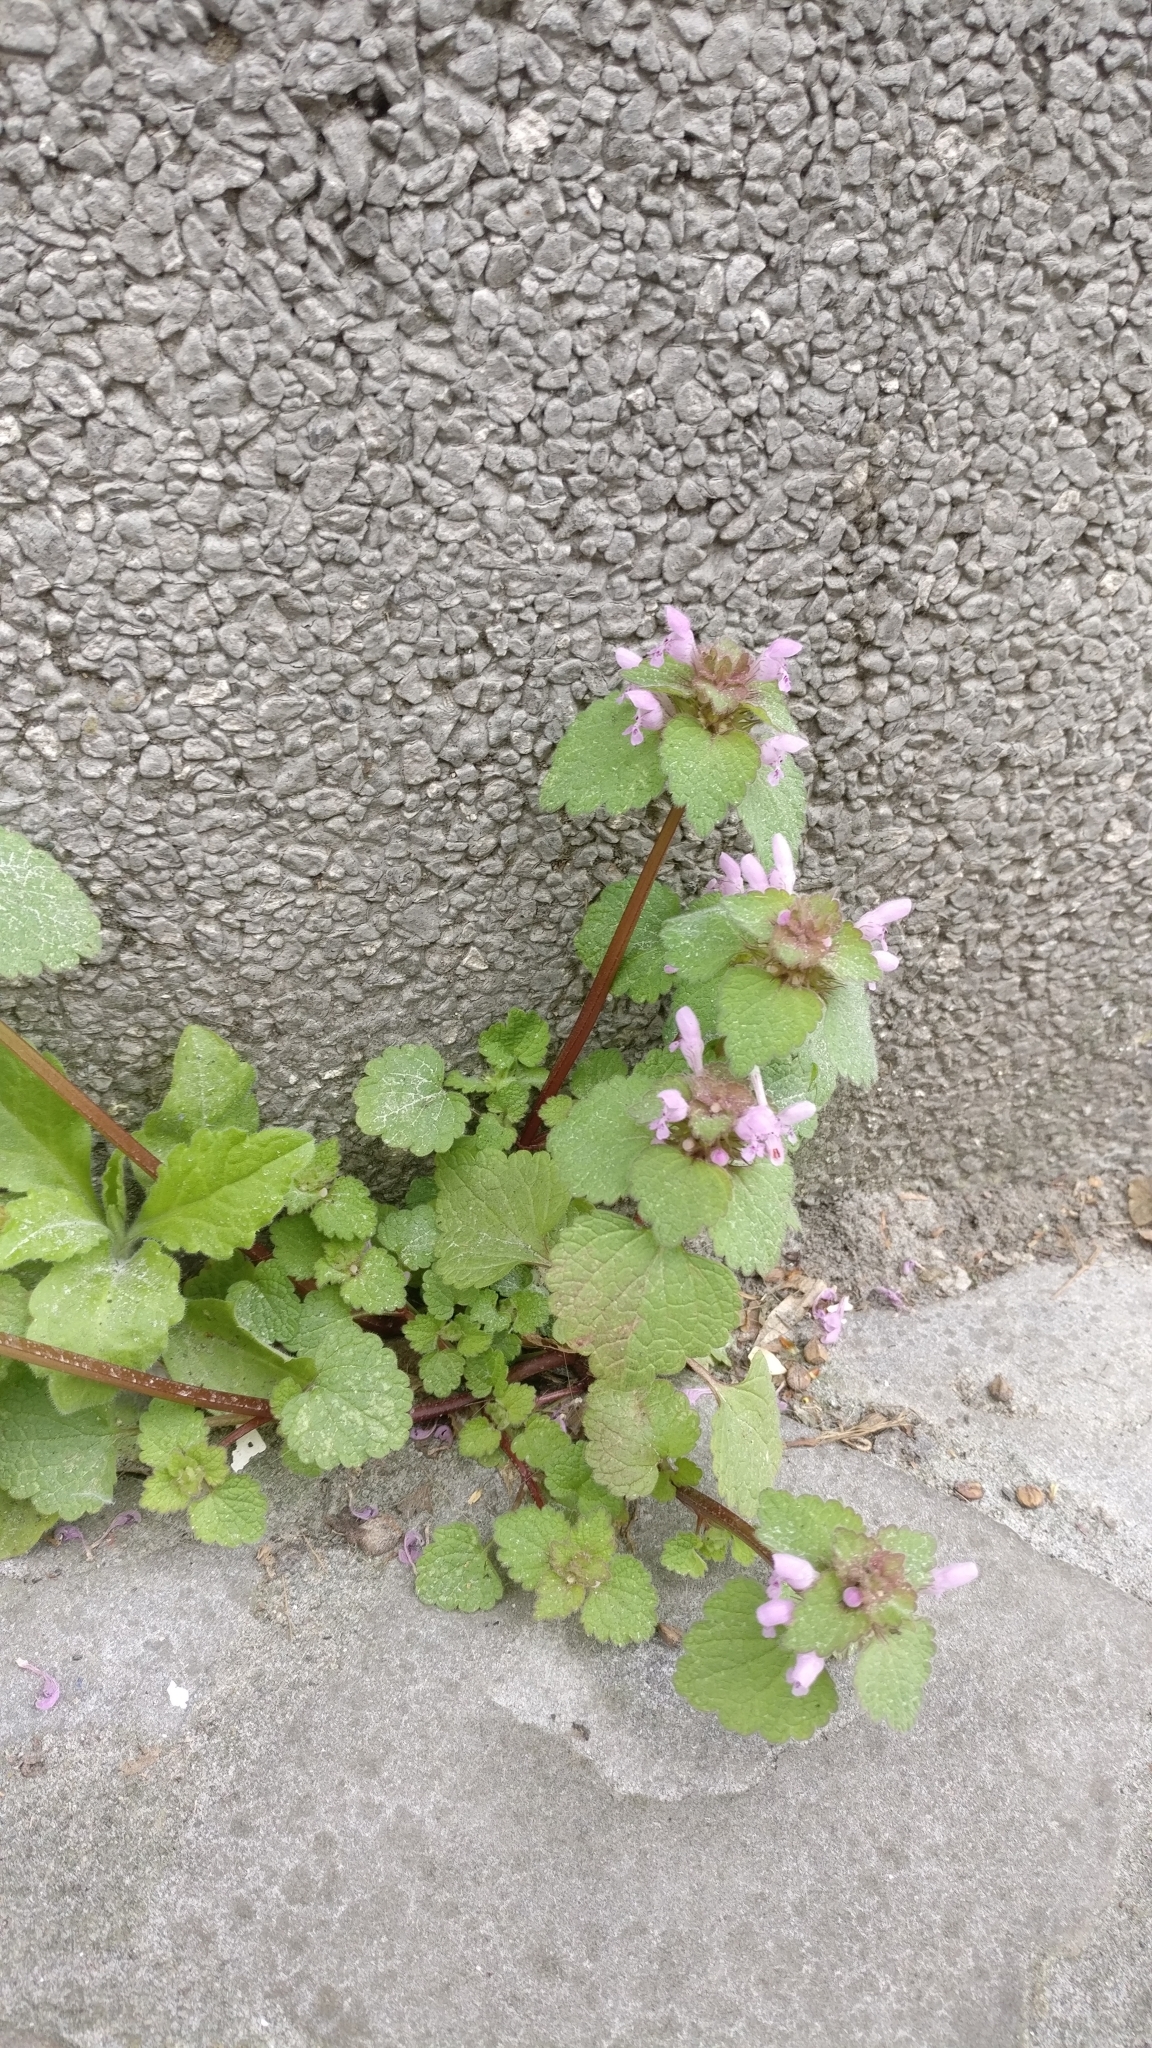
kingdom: Plantae
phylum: Tracheophyta
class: Magnoliopsida
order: Lamiales
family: Lamiaceae
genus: Lamium
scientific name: Lamium purpureum
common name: Red dead-nettle
